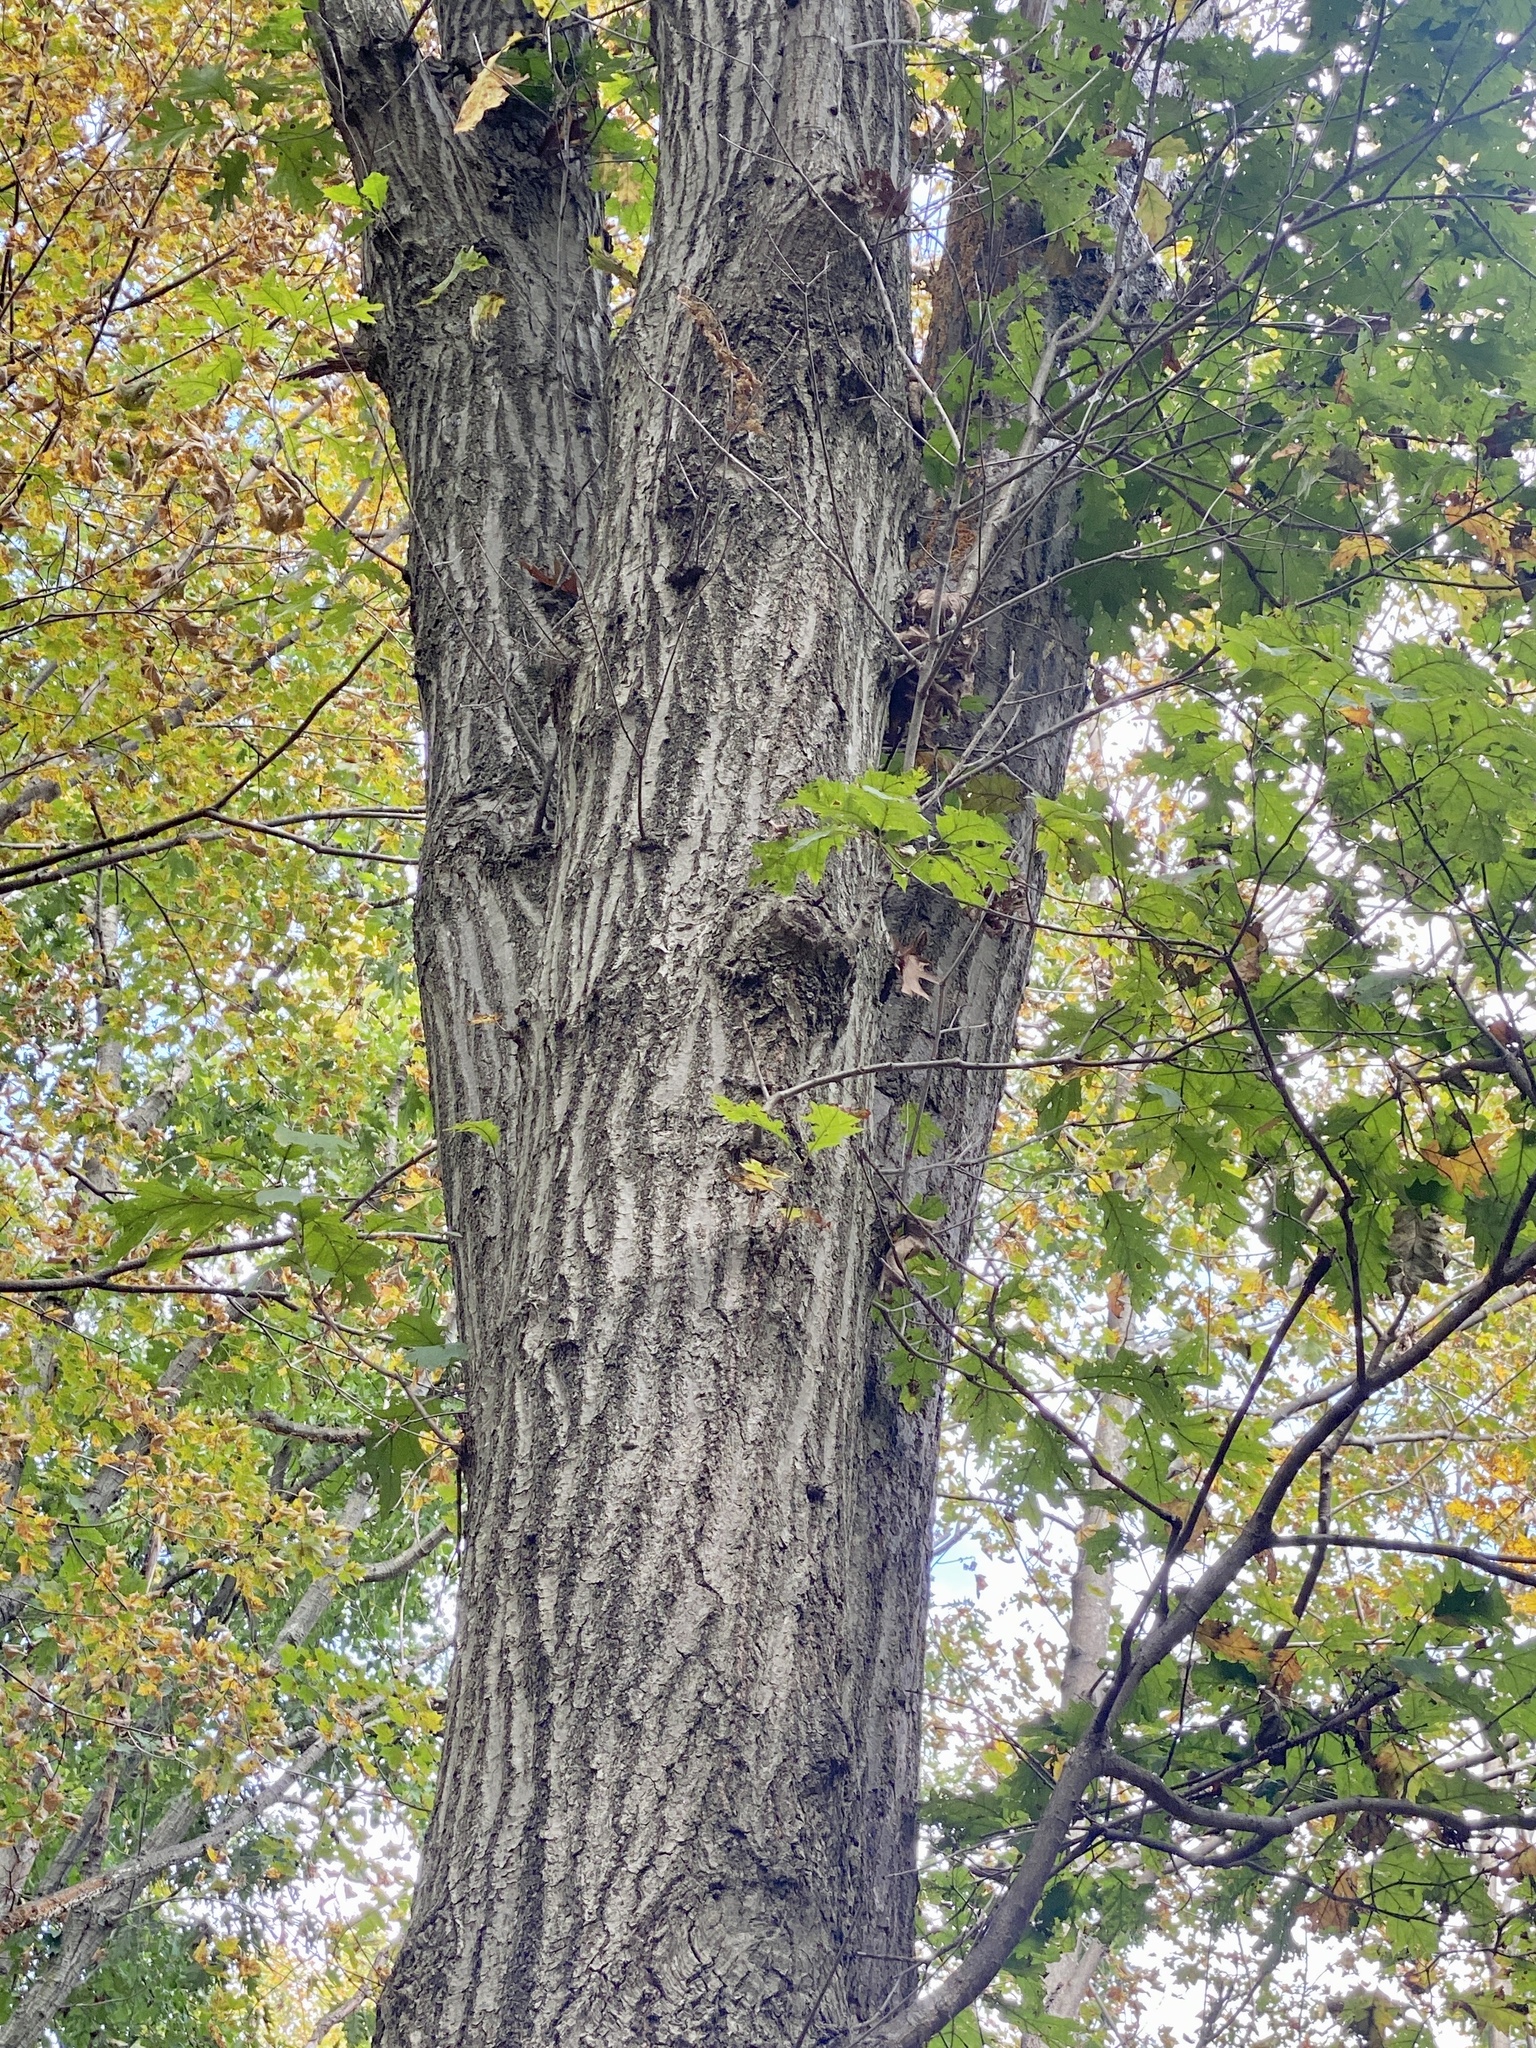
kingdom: Plantae
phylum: Tracheophyta
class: Magnoliopsida
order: Fagales
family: Fagaceae
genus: Quercus
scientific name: Quercus rubra
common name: Red oak
